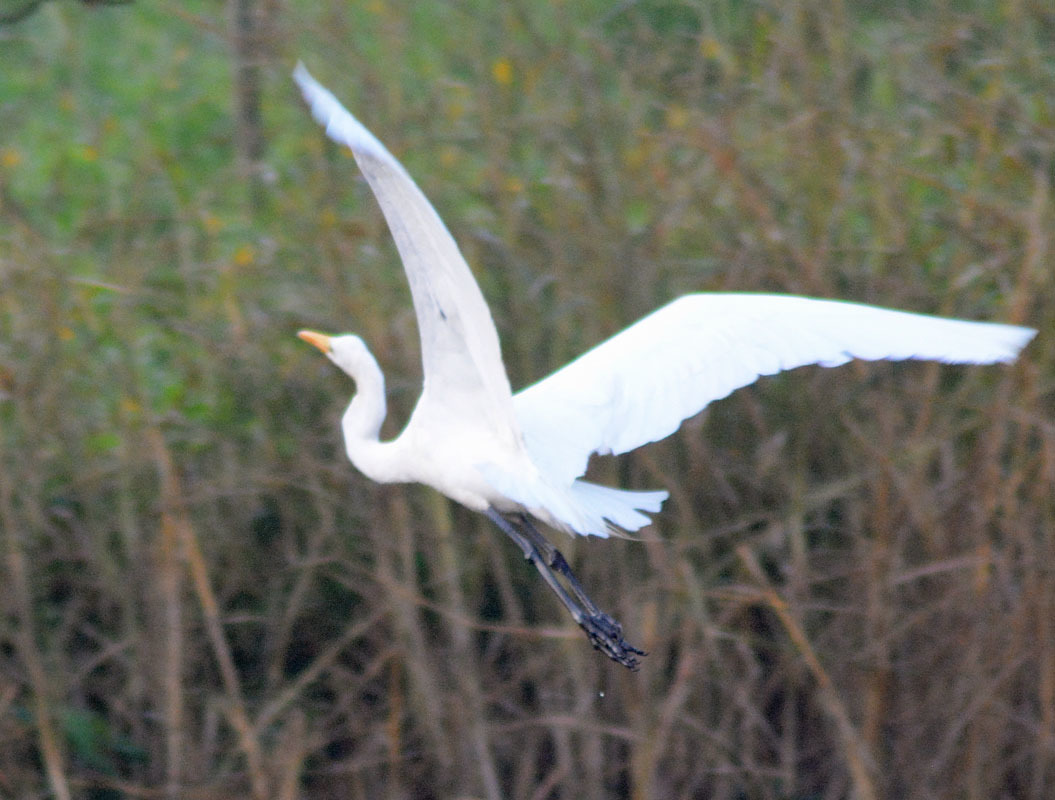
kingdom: Animalia
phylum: Chordata
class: Aves
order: Pelecaniformes
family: Ardeidae
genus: Ardea
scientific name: Ardea alba
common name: Great egret
